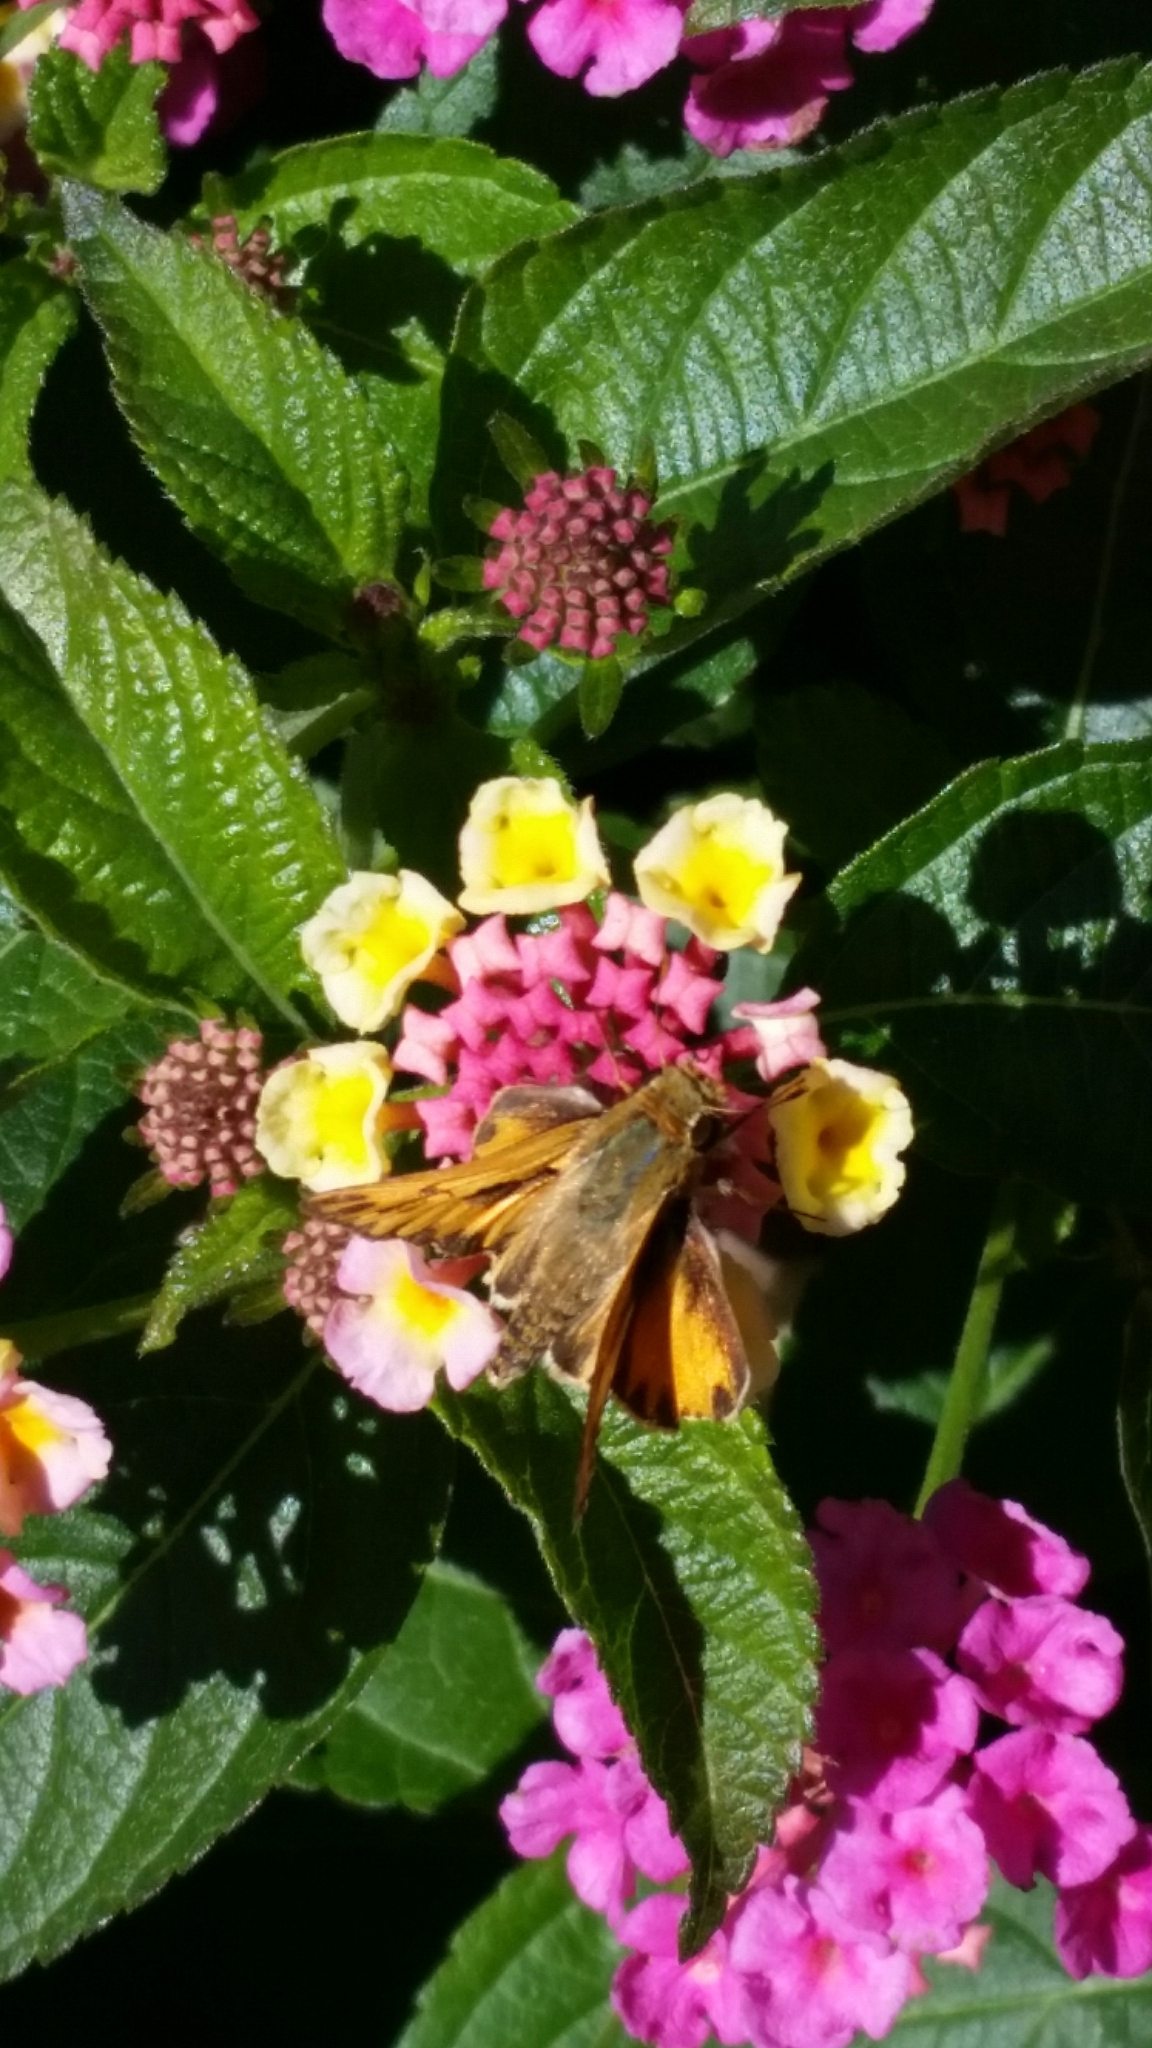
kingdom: Animalia
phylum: Arthropoda
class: Insecta
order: Lepidoptera
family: Hesperiidae
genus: Hylephila
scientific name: Hylephila phyleus
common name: Fiery skipper
